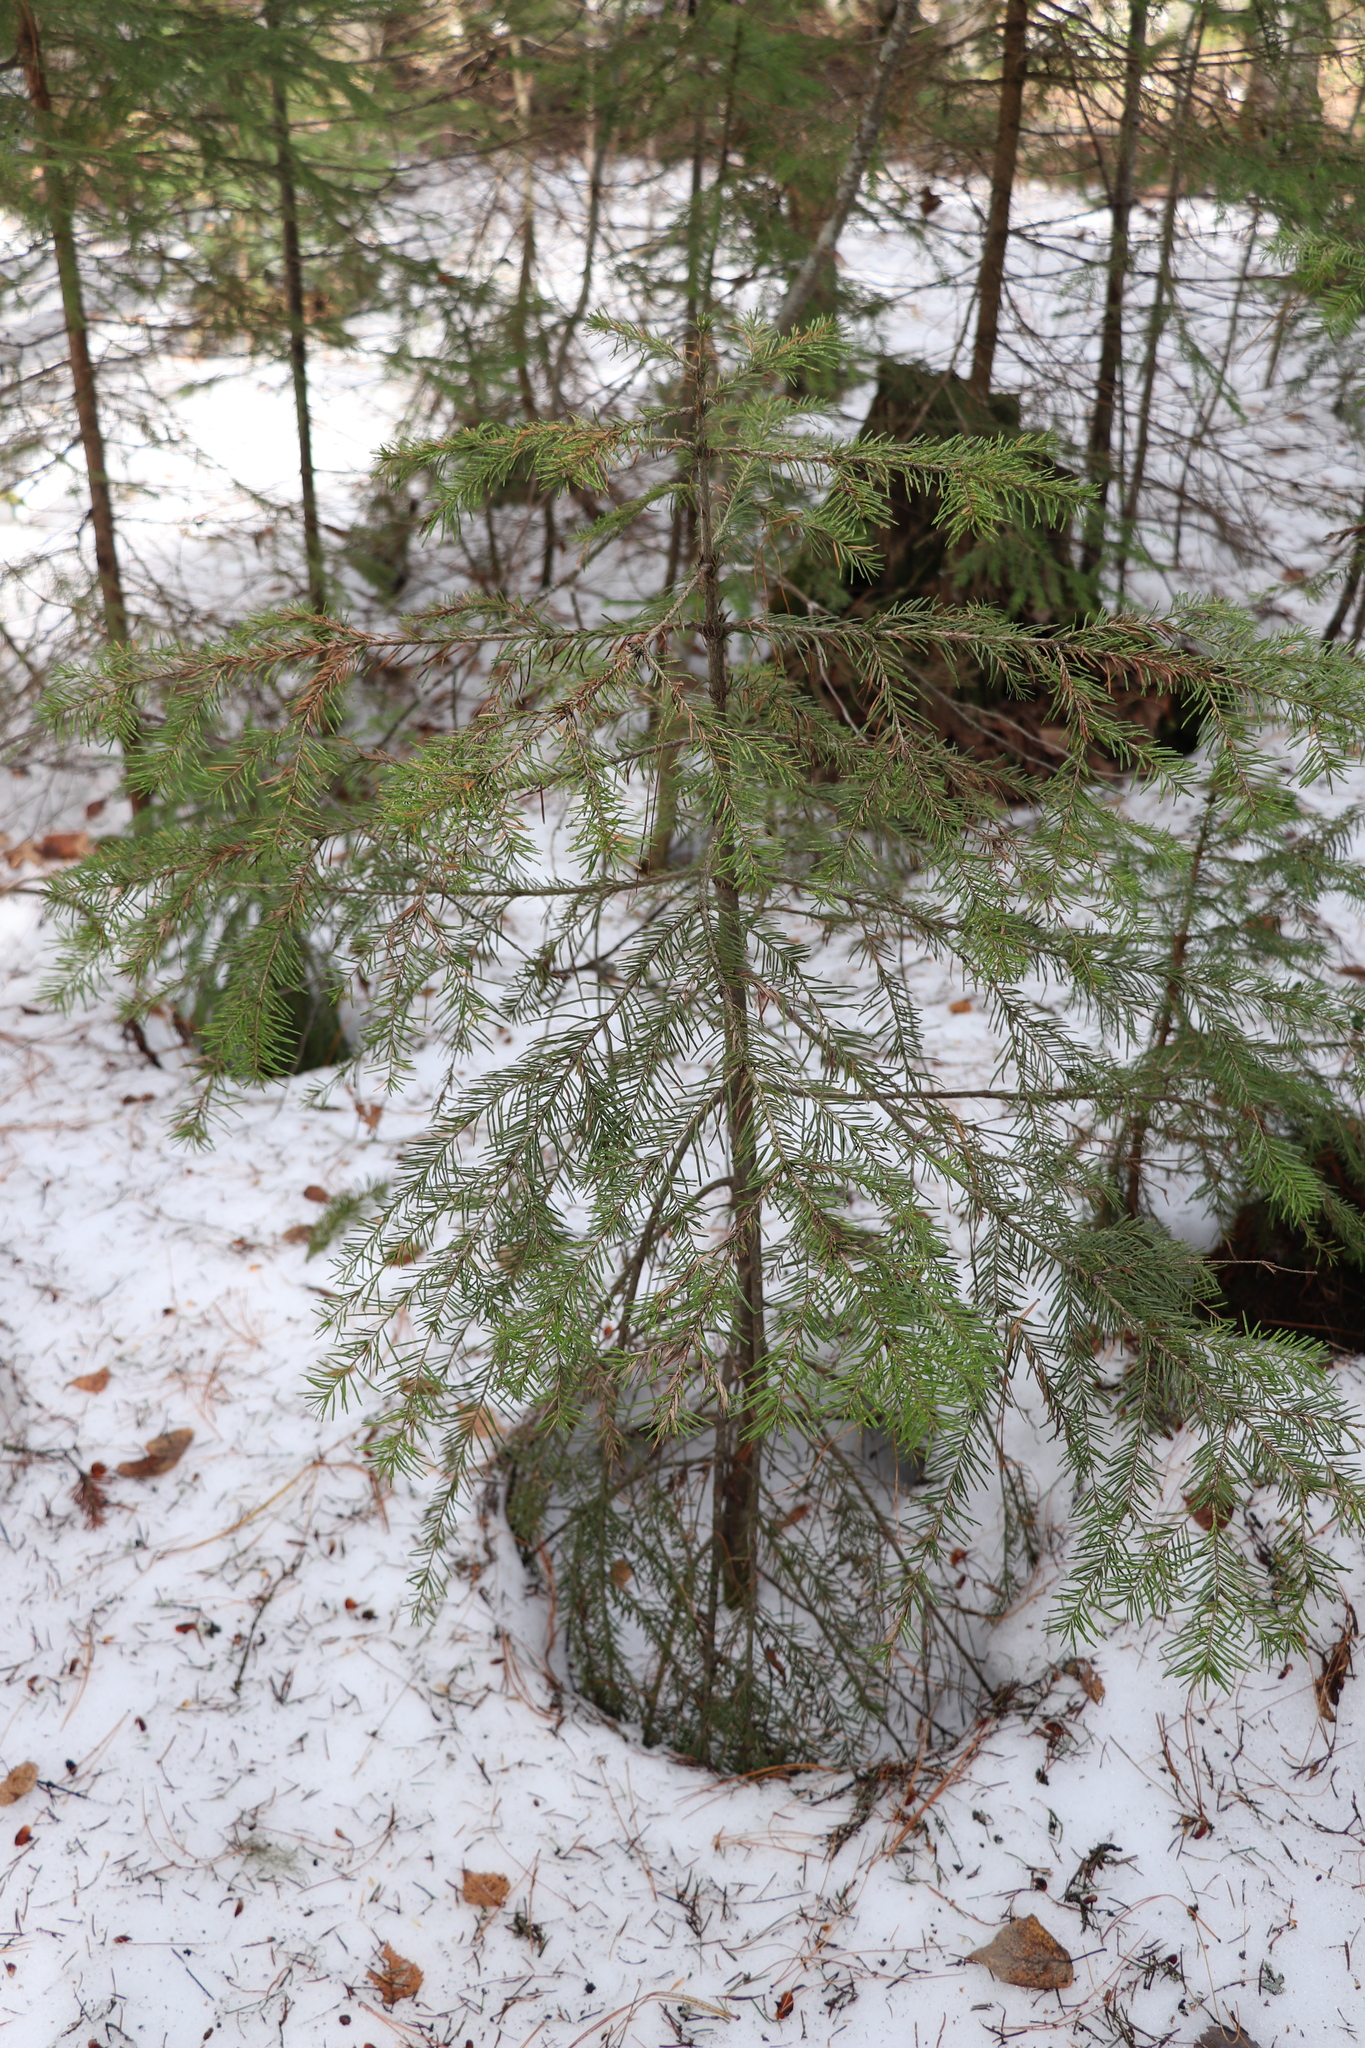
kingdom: Plantae
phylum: Tracheophyta
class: Pinopsida
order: Pinales
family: Pinaceae
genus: Abies
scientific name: Abies sibirica
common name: Siberian fir
